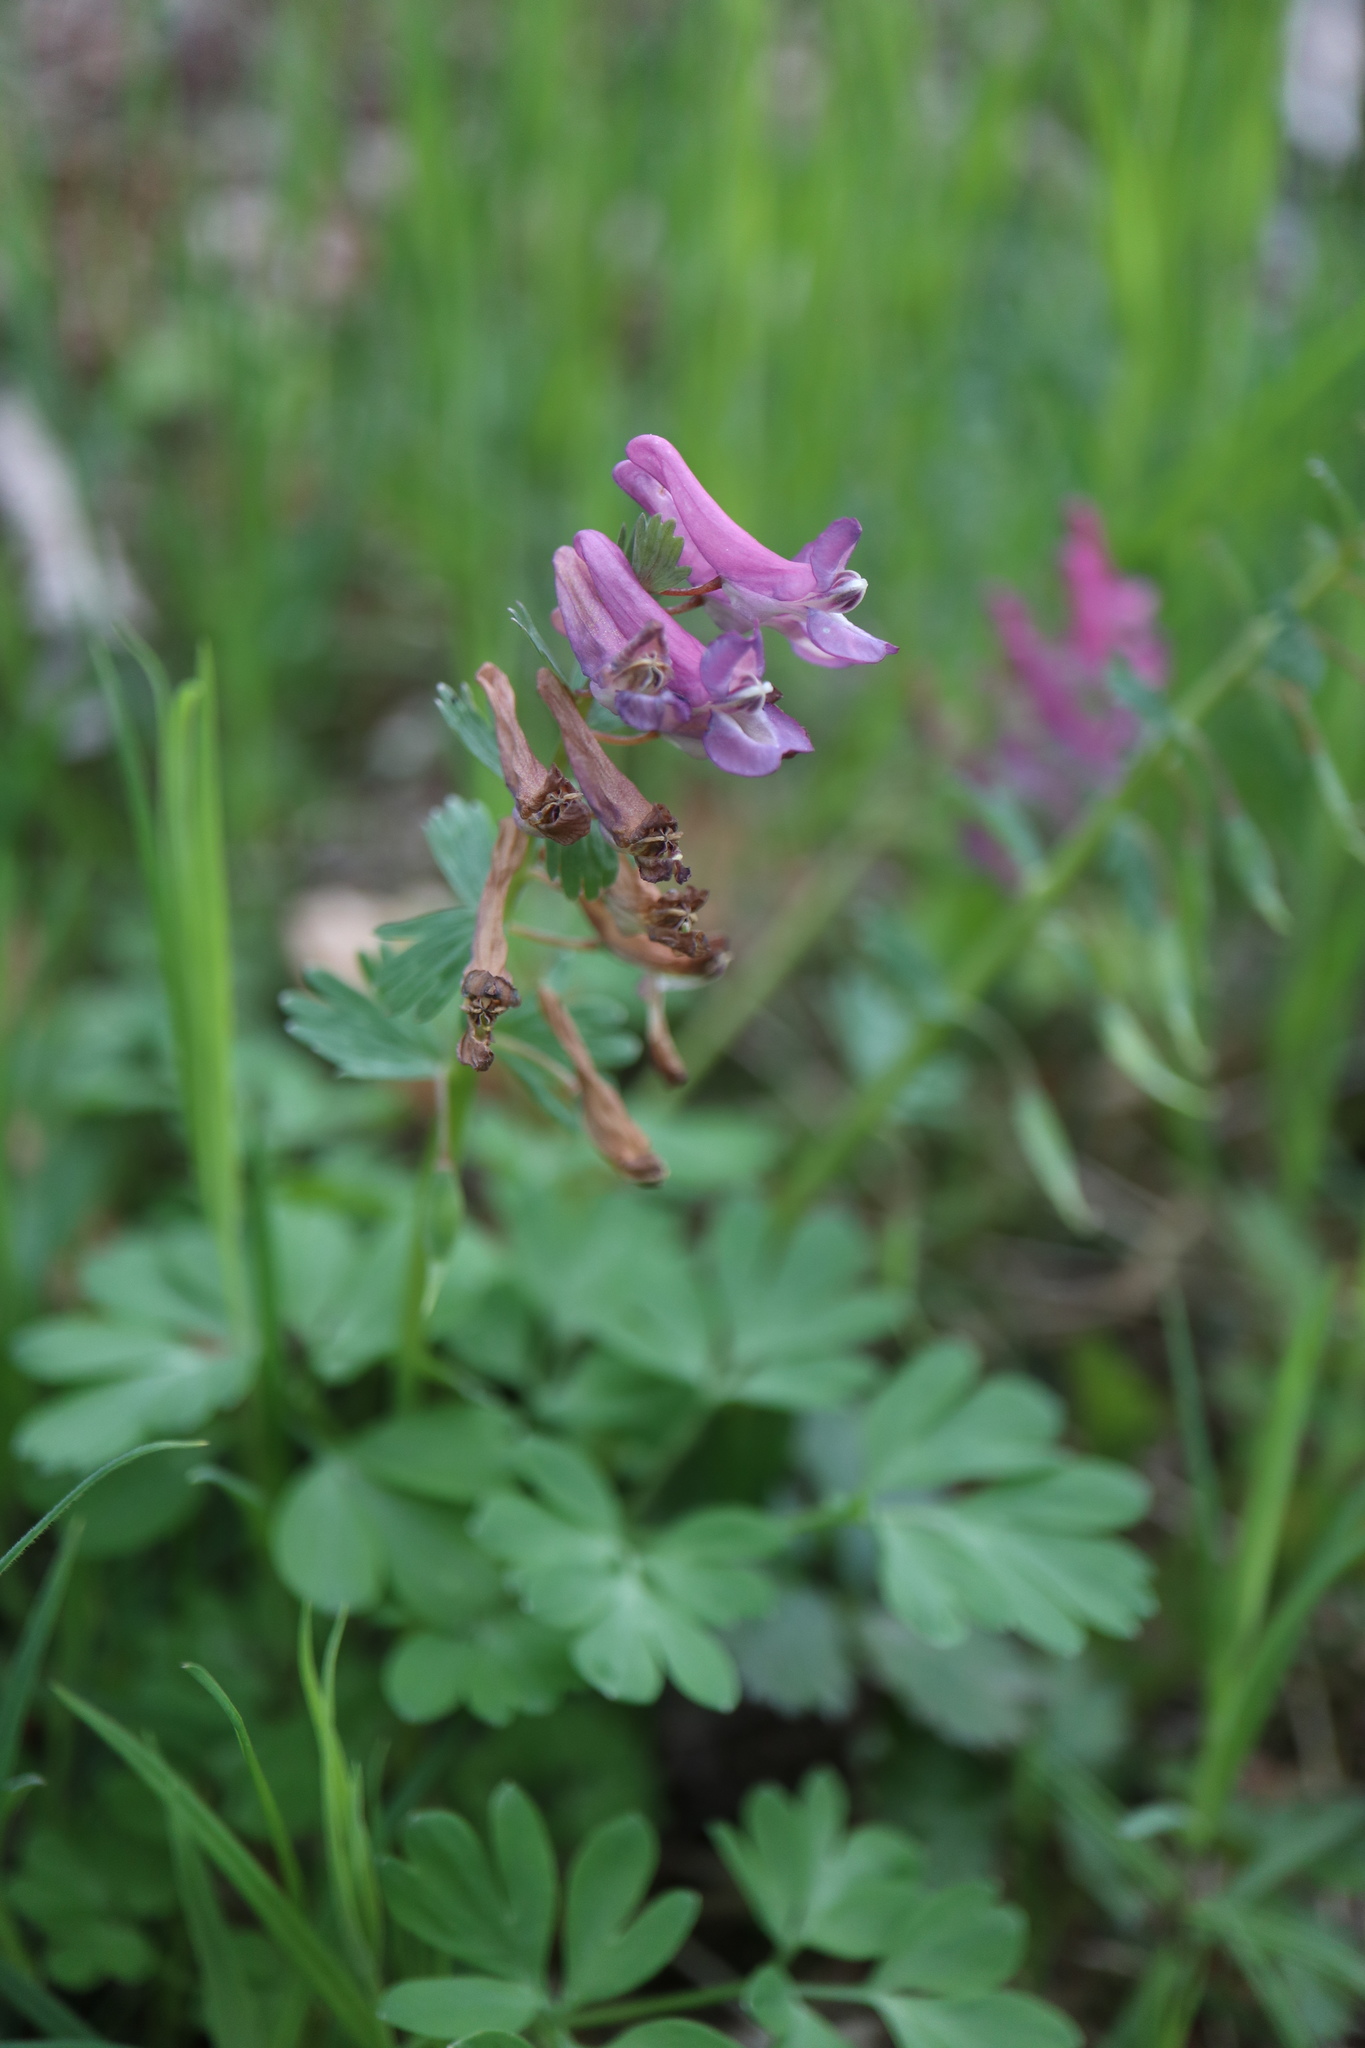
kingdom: Plantae
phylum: Tracheophyta
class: Magnoliopsida
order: Ranunculales
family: Papaveraceae
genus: Corydalis
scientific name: Corydalis solida
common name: Bird-in-a-bush
